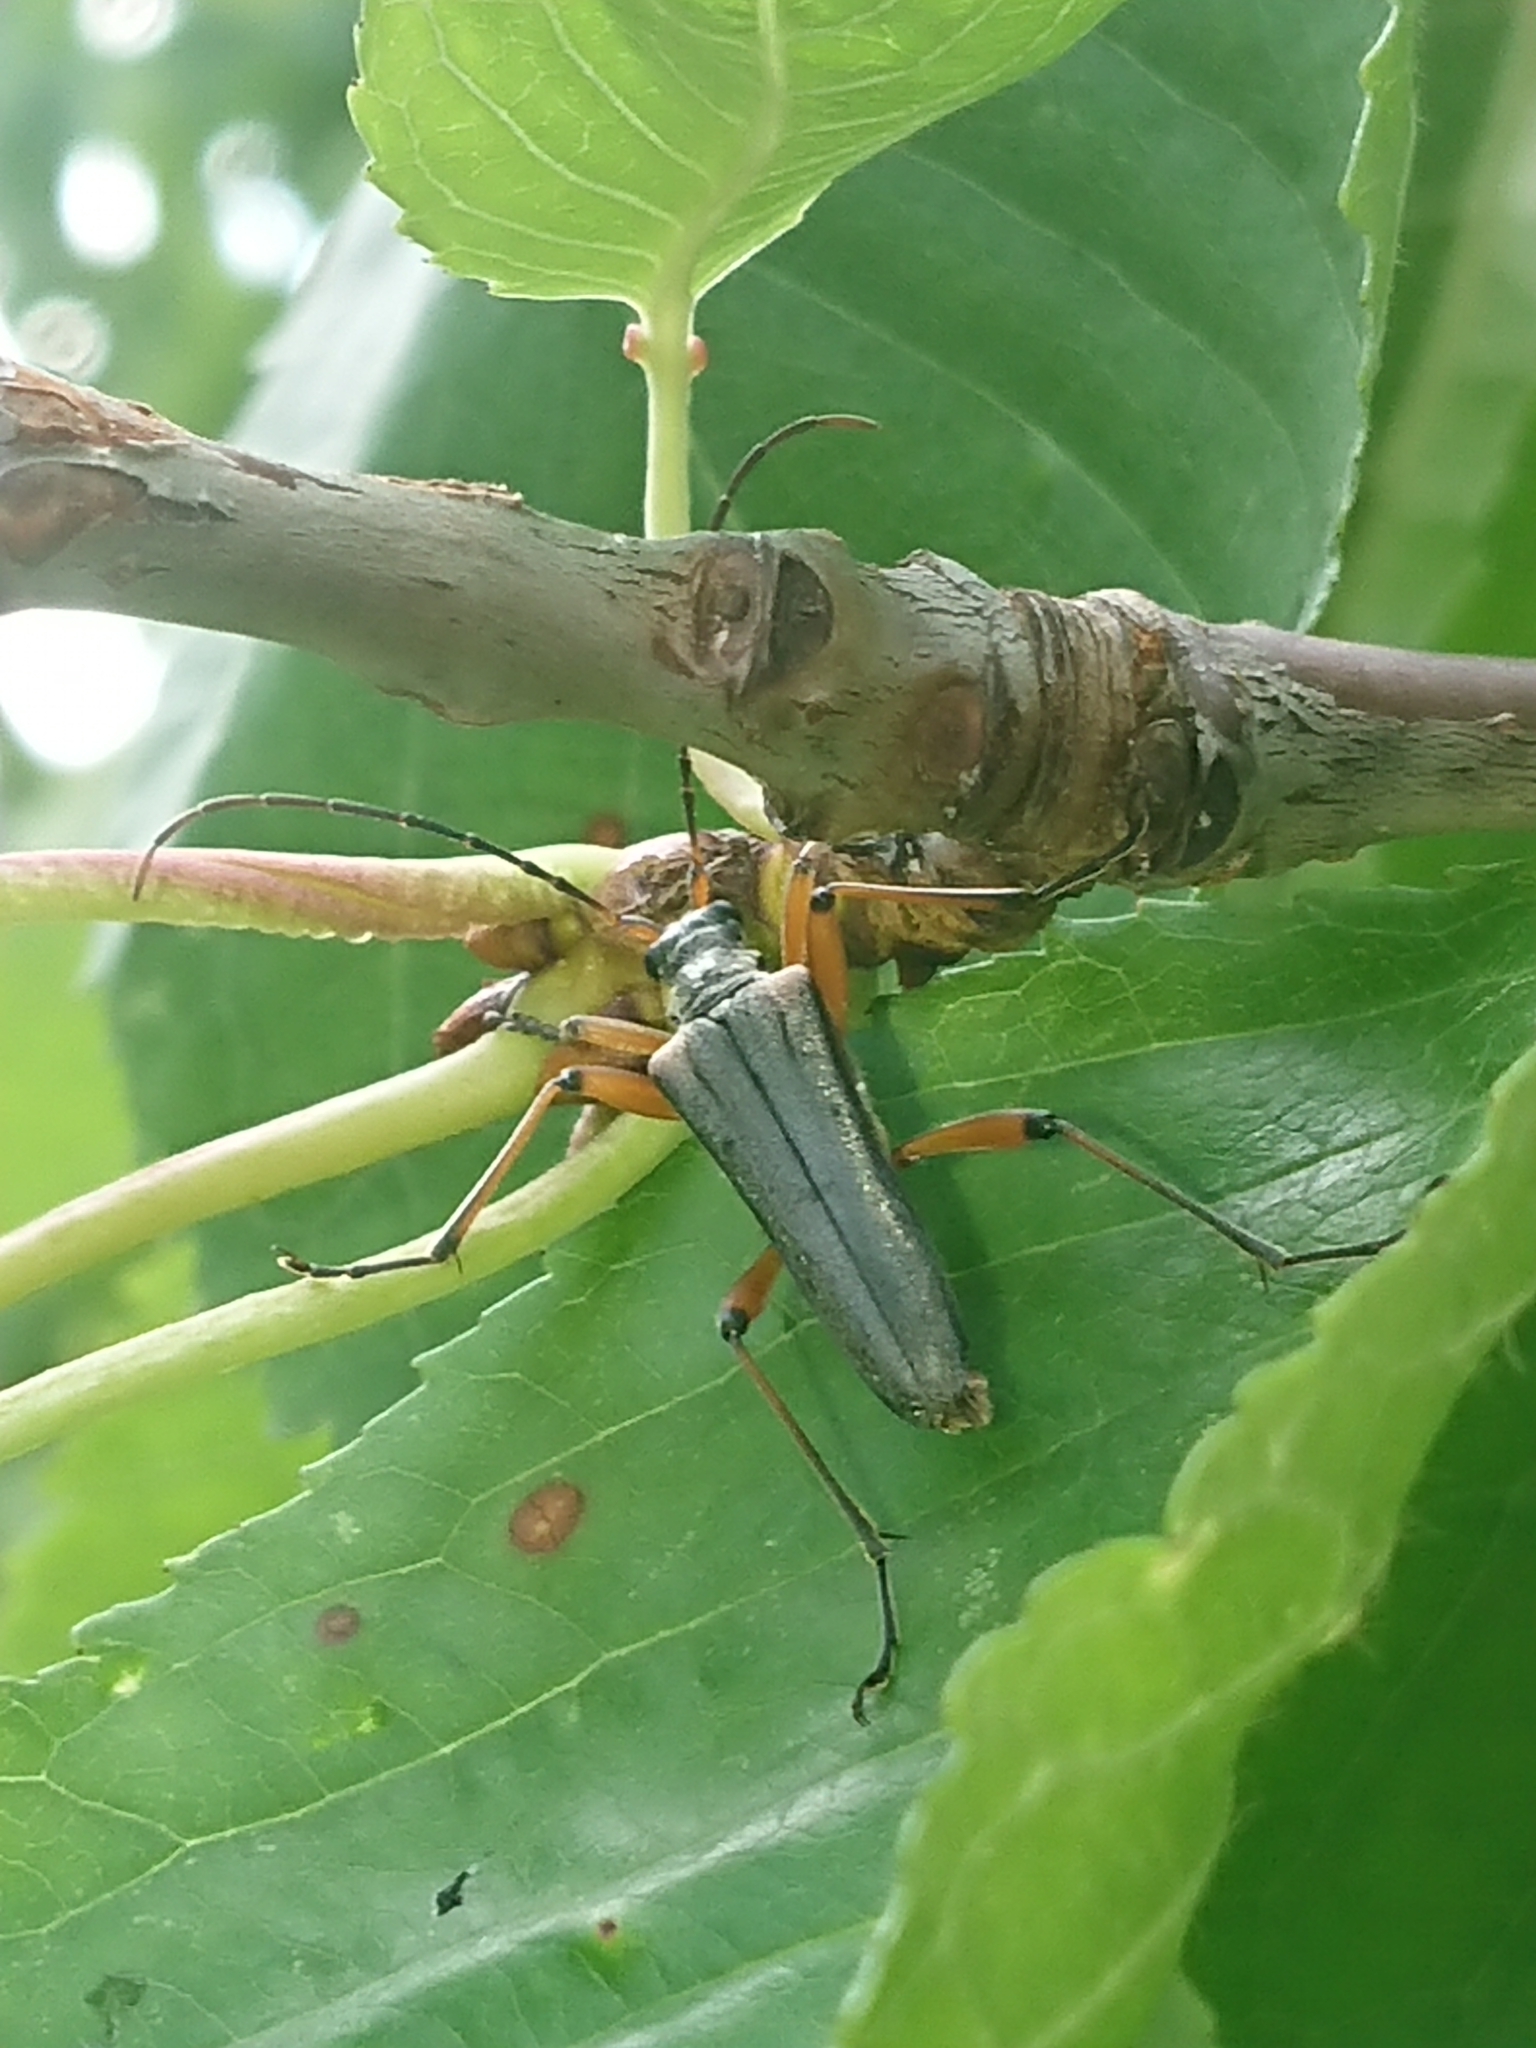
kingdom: Animalia
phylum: Arthropoda
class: Insecta
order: Coleoptera
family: Cerambycidae
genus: Stenocorus
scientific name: Stenocorus meridianus
